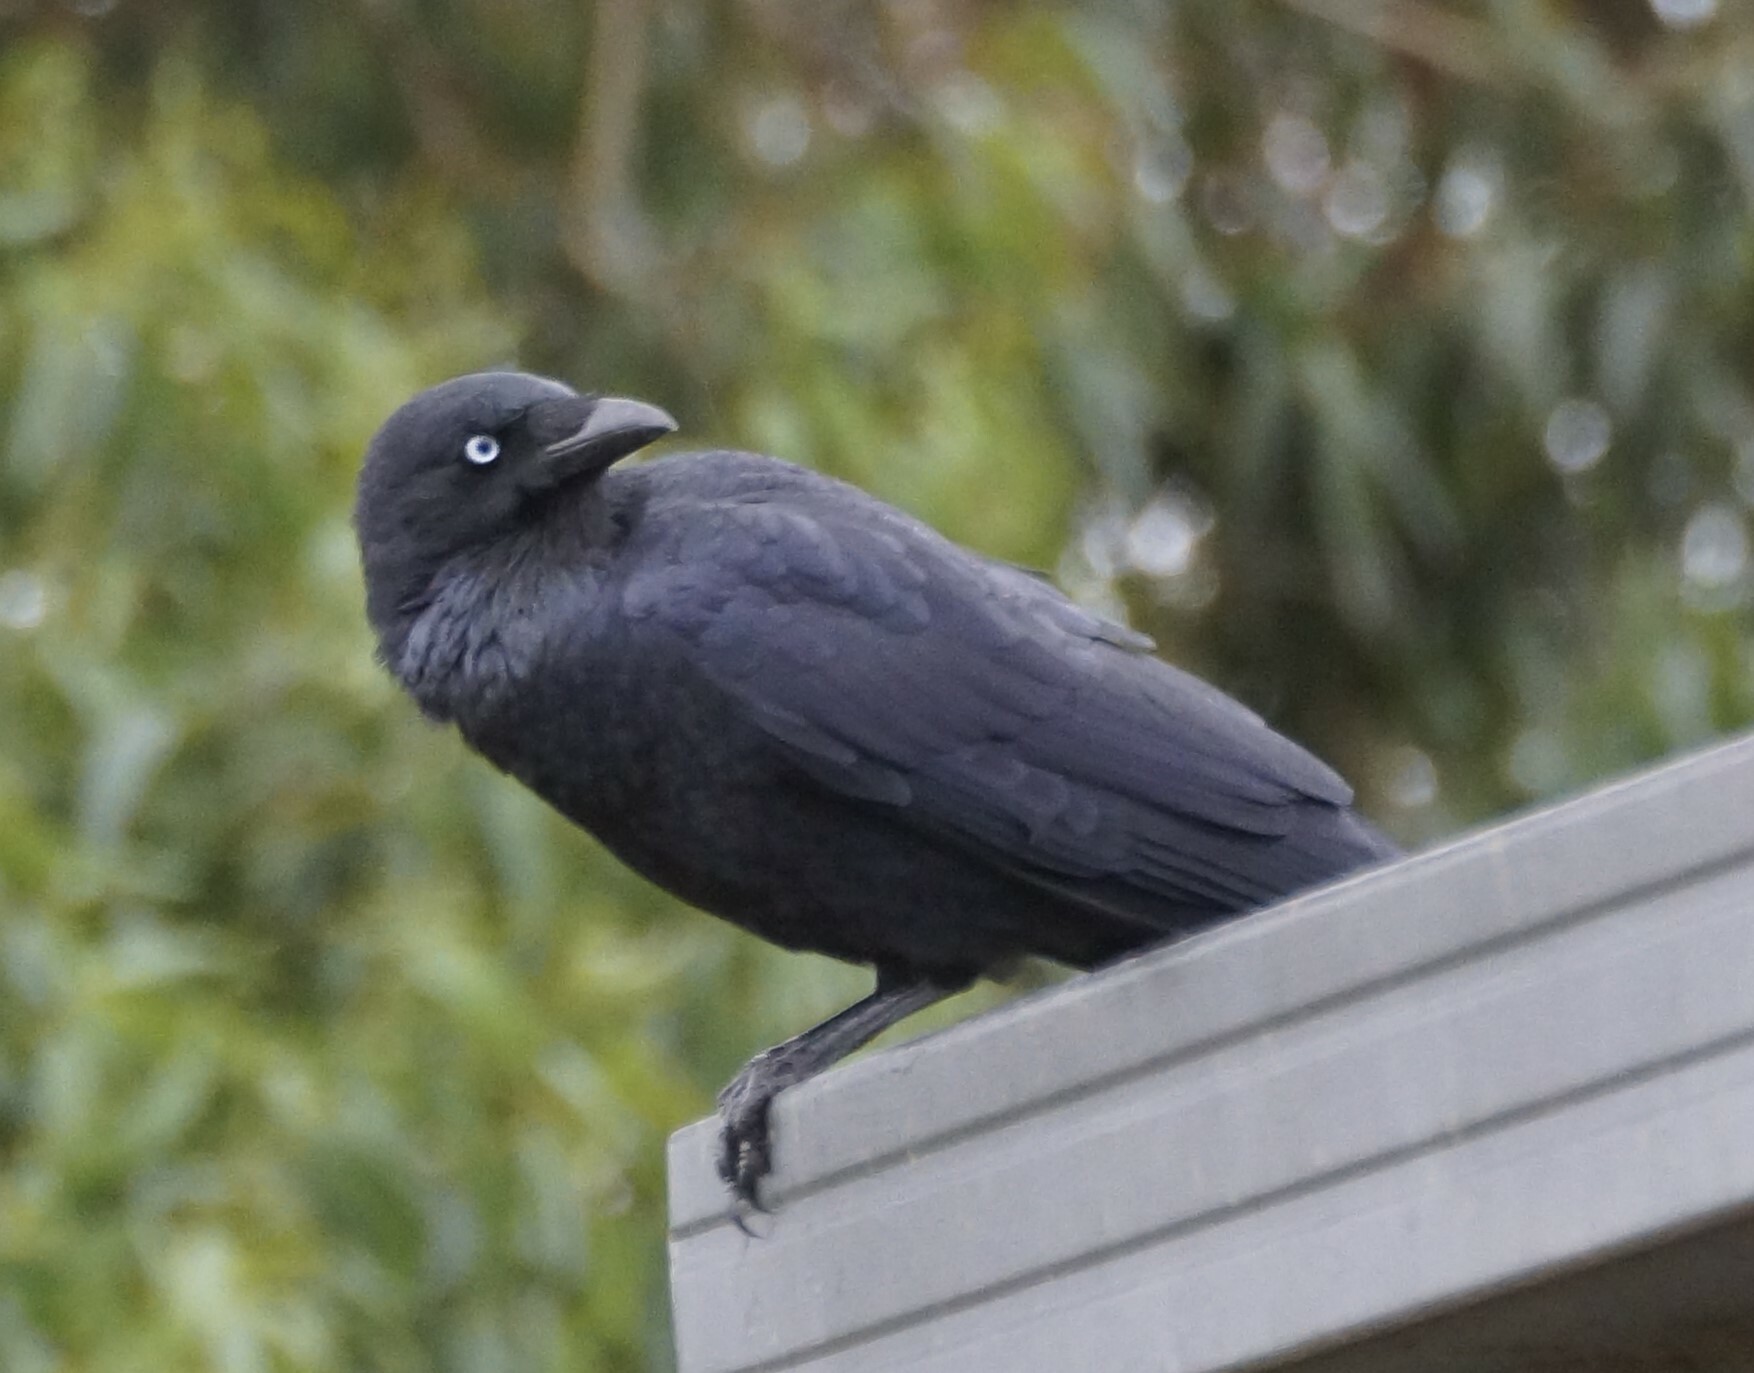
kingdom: Animalia
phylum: Chordata
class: Aves
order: Passeriformes
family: Corvidae
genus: Corvus
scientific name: Corvus mellori
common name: Little raven
